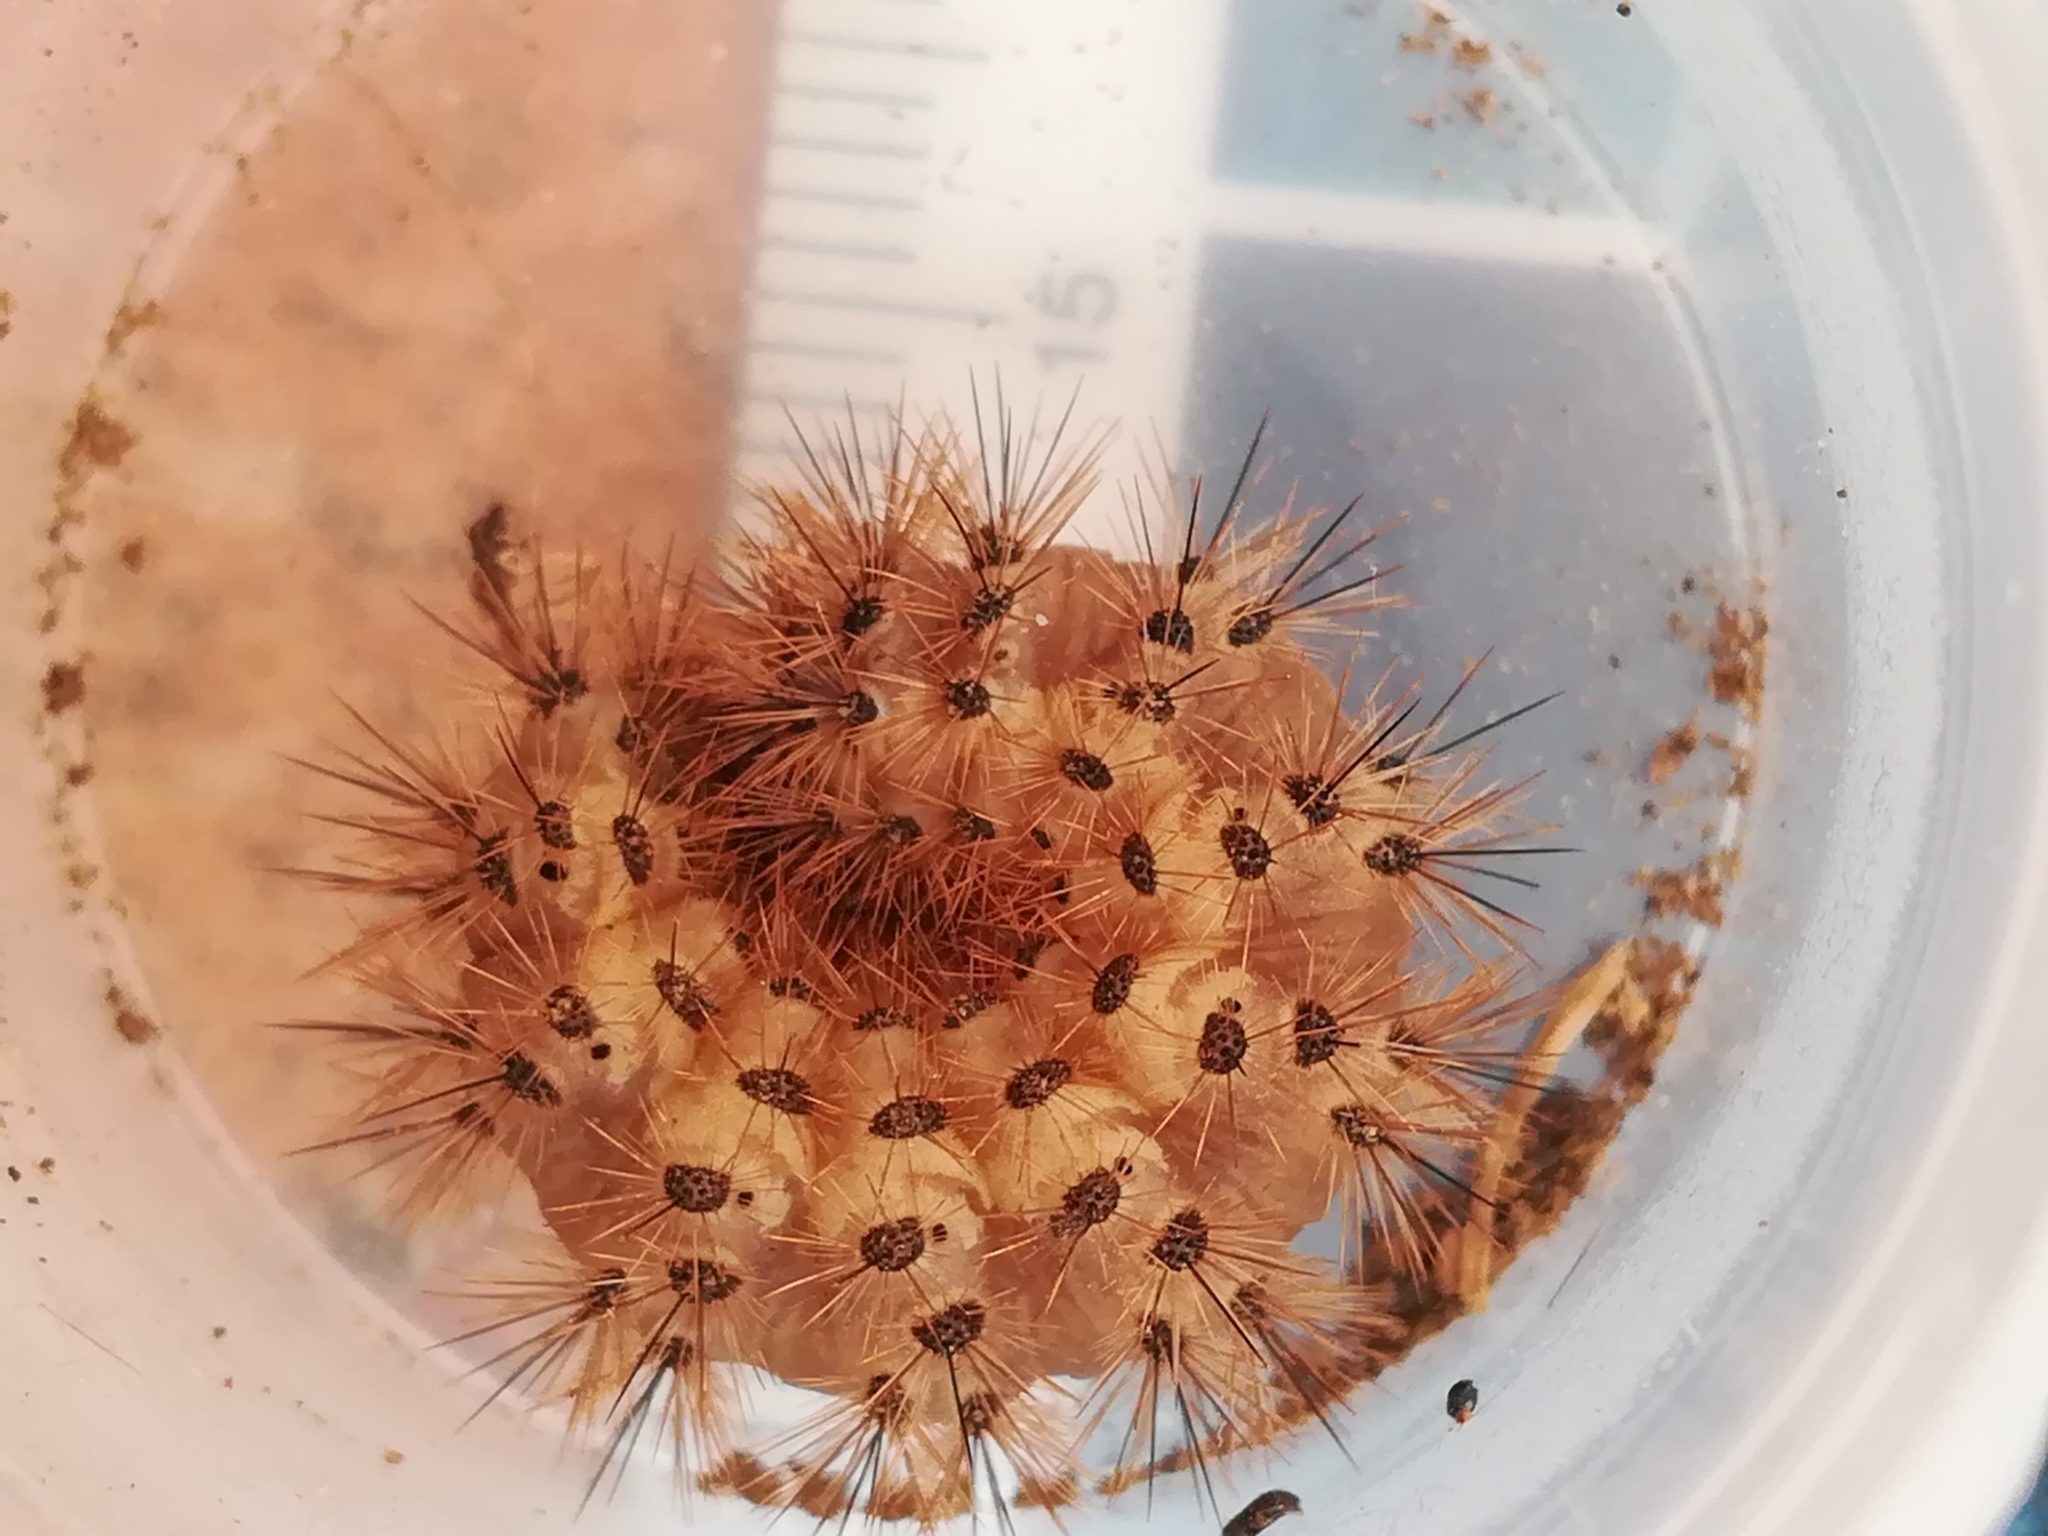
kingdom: Animalia
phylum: Arthropoda
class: Insecta
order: Lepidoptera
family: Erebidae
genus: Cymbalophora
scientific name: Cymbalophora pudica
